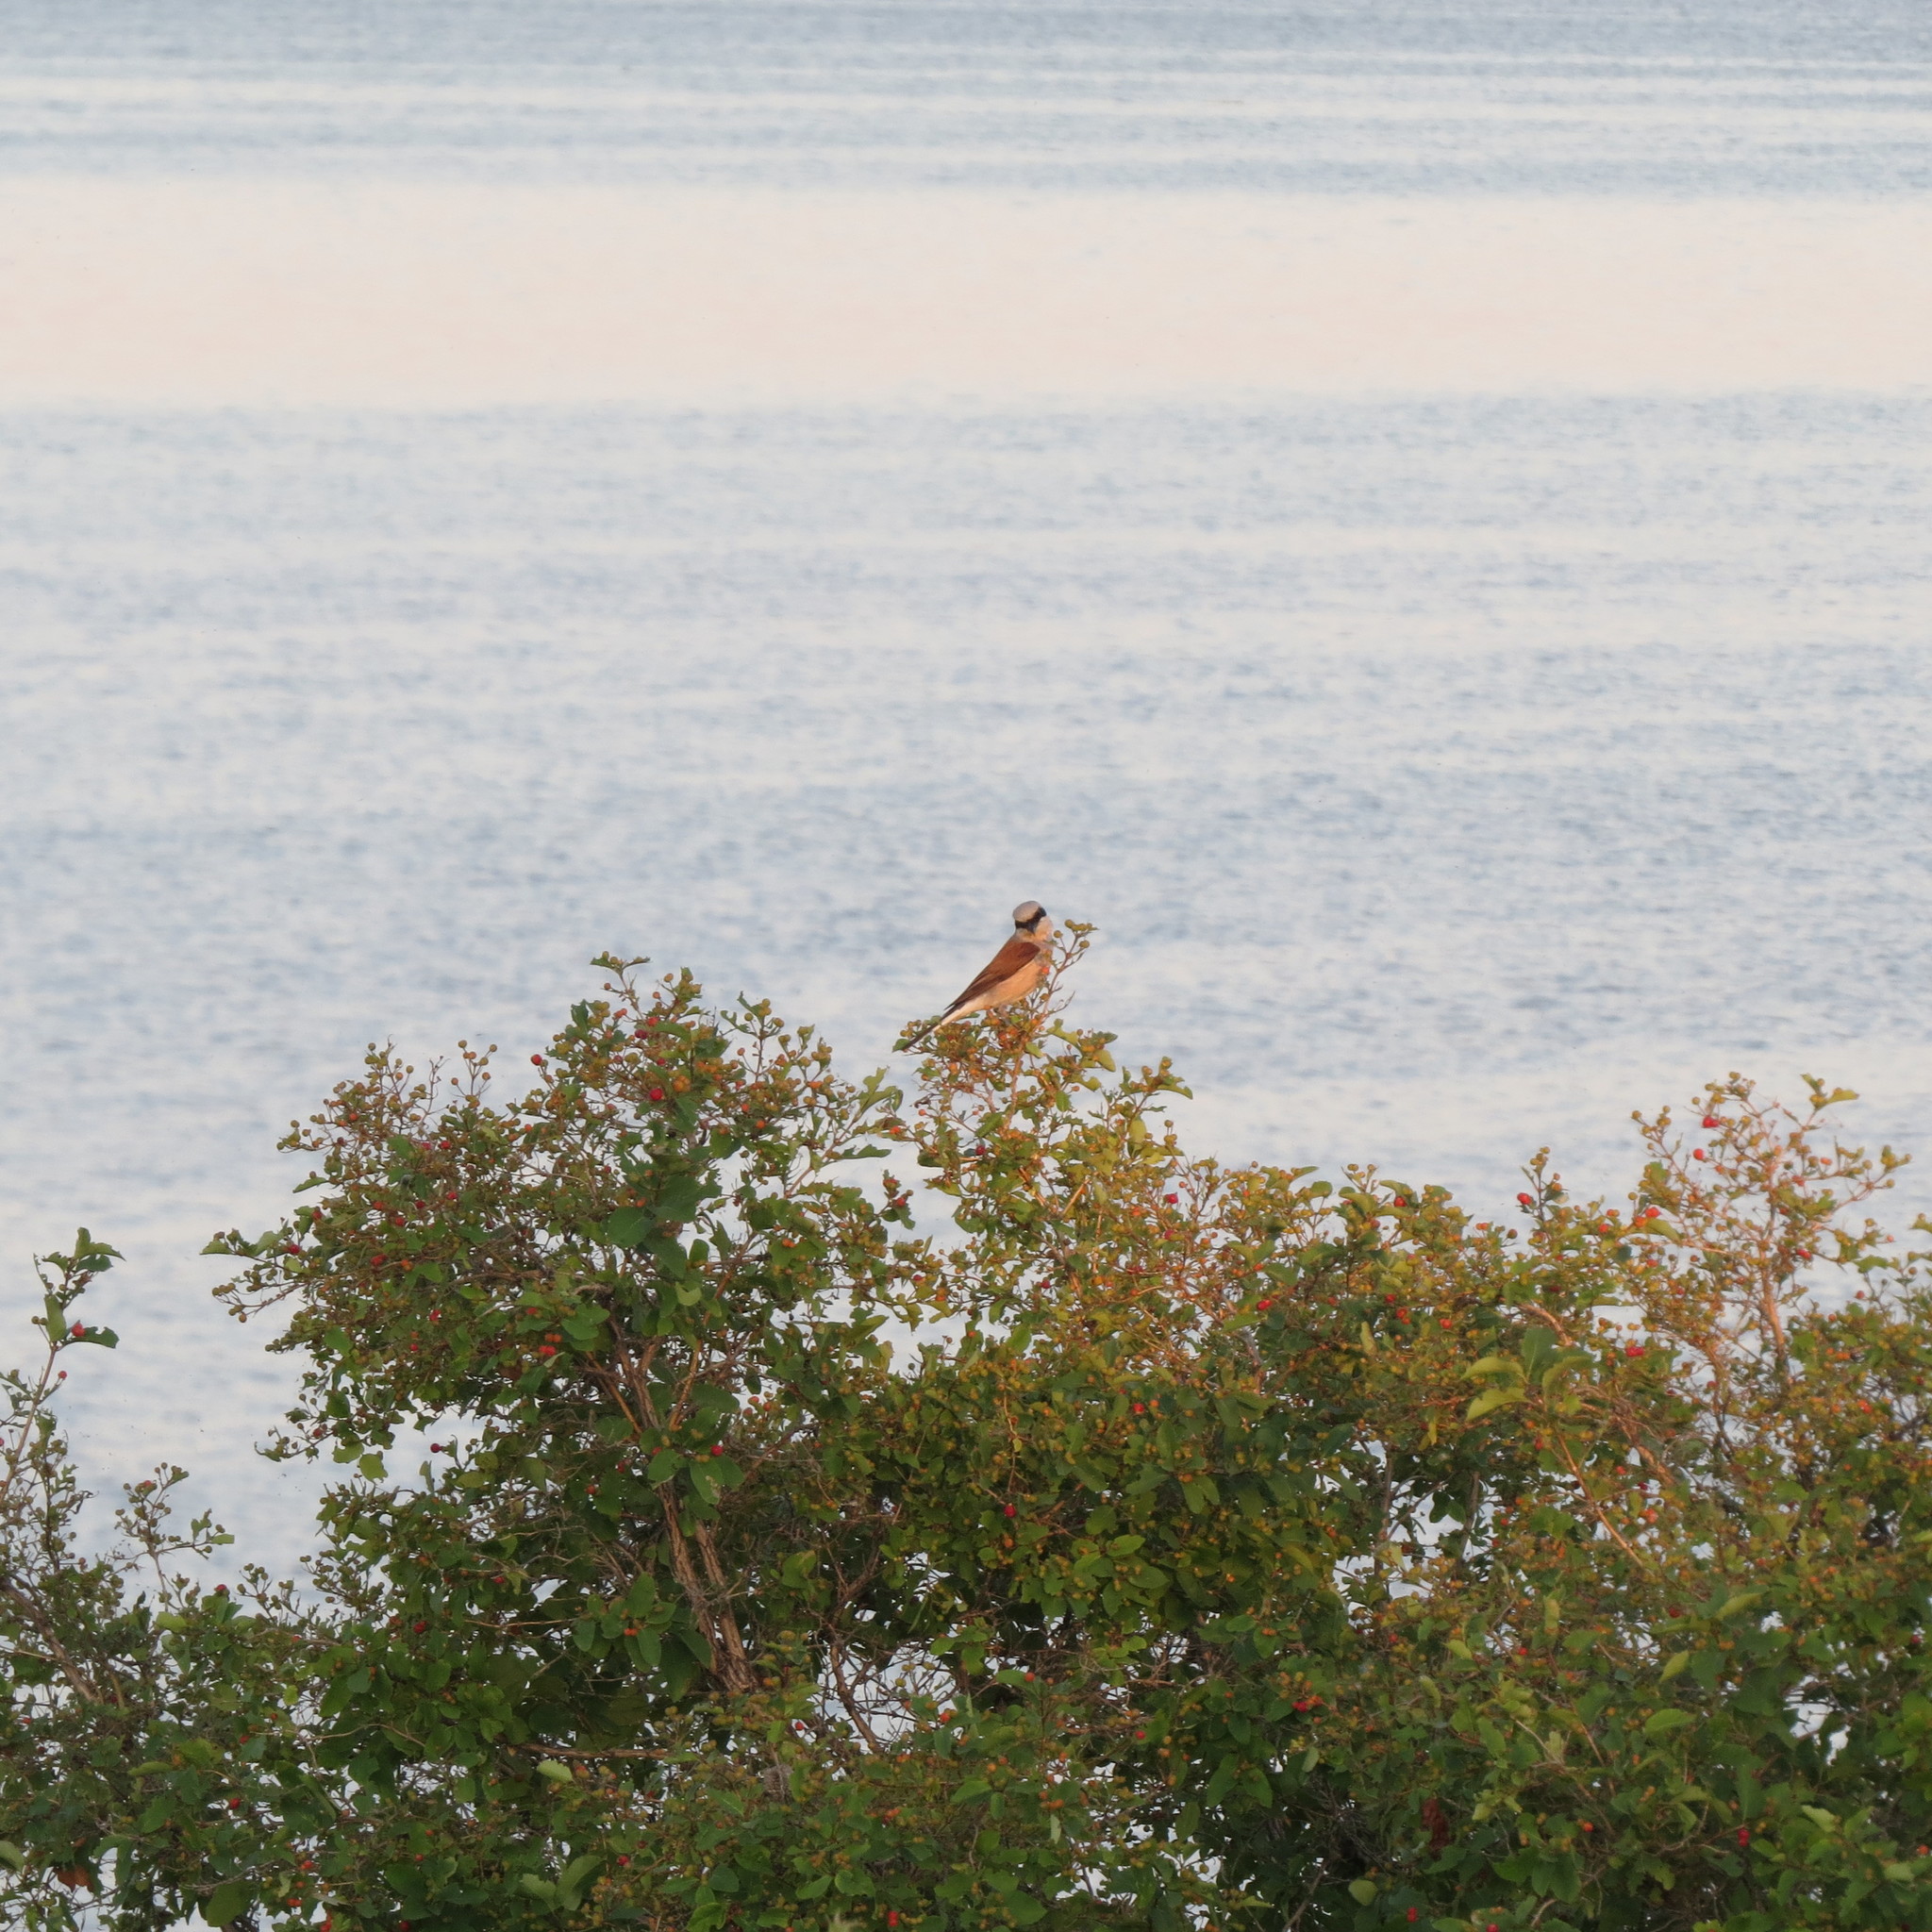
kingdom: Animalia
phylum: Chordata
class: Aves
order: Passeriformes
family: Laniidae
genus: Lanius
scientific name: Lanius collurio
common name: Red-backed shrike
